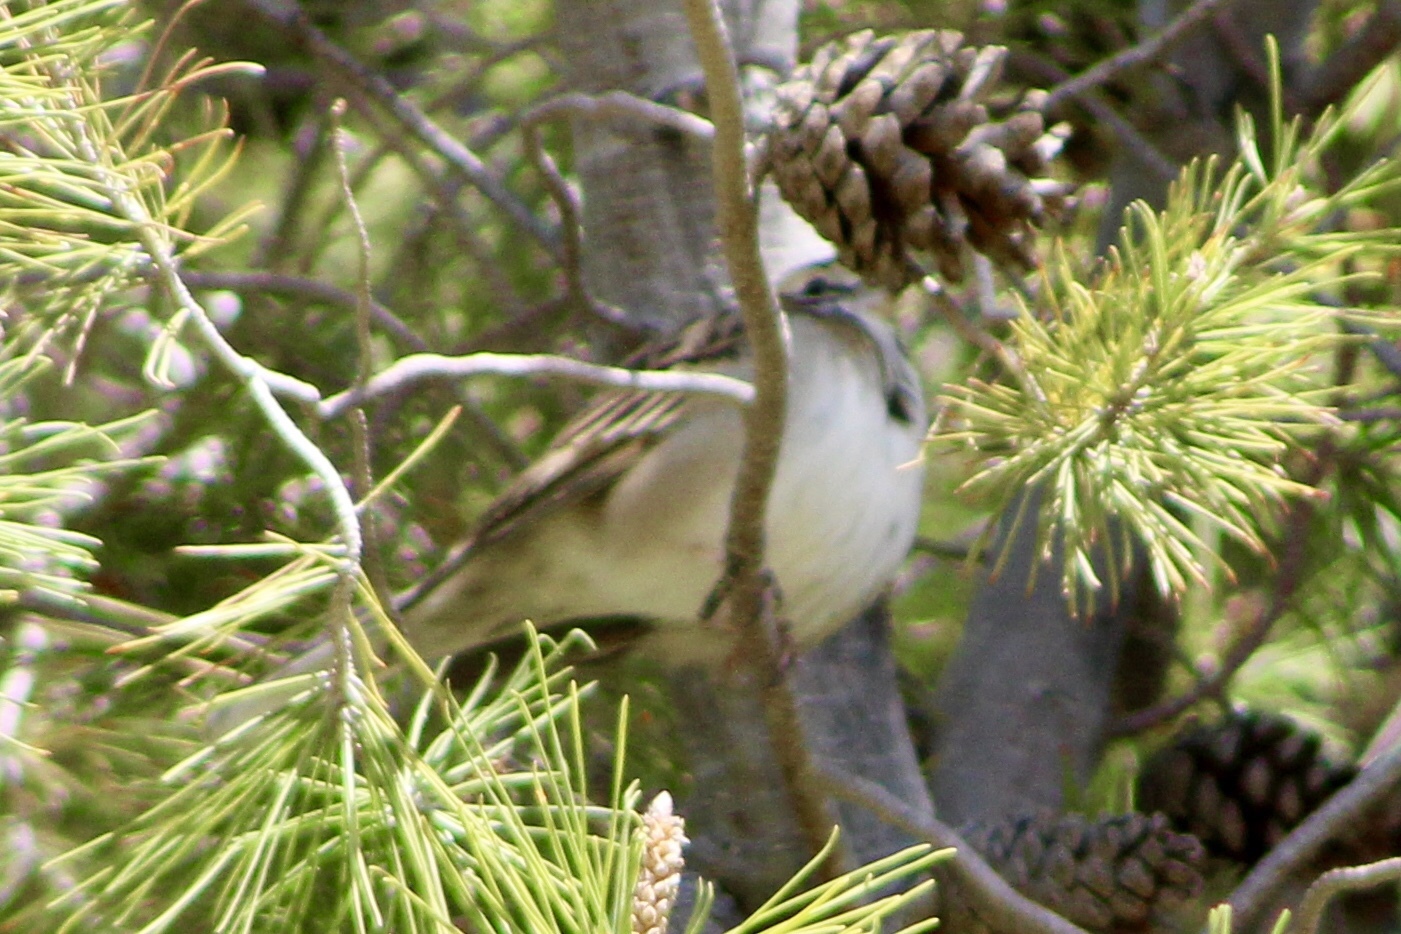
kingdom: Animalia
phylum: Chordata
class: Aves
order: Passeriformes
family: Passerellidae
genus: Chondestes
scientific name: Chondestes grammacus
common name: Lark sparrow
